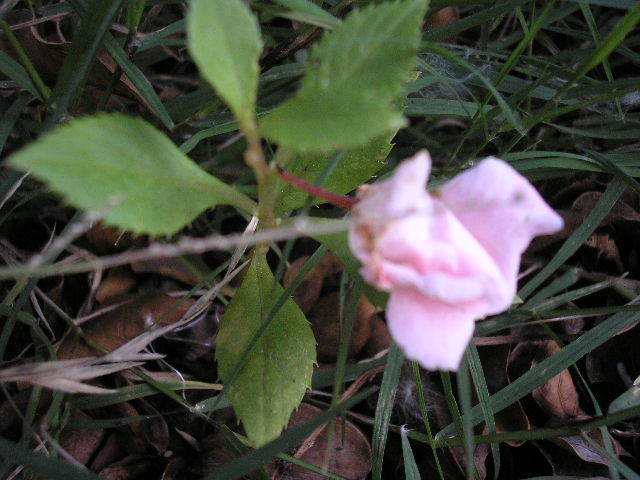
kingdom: Plantae
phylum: Tracheophyta
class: Magnoliopsida
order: Ericales
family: Balsaminaceae
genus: Impatiens
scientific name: Impatiens balsamina
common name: Balsam
